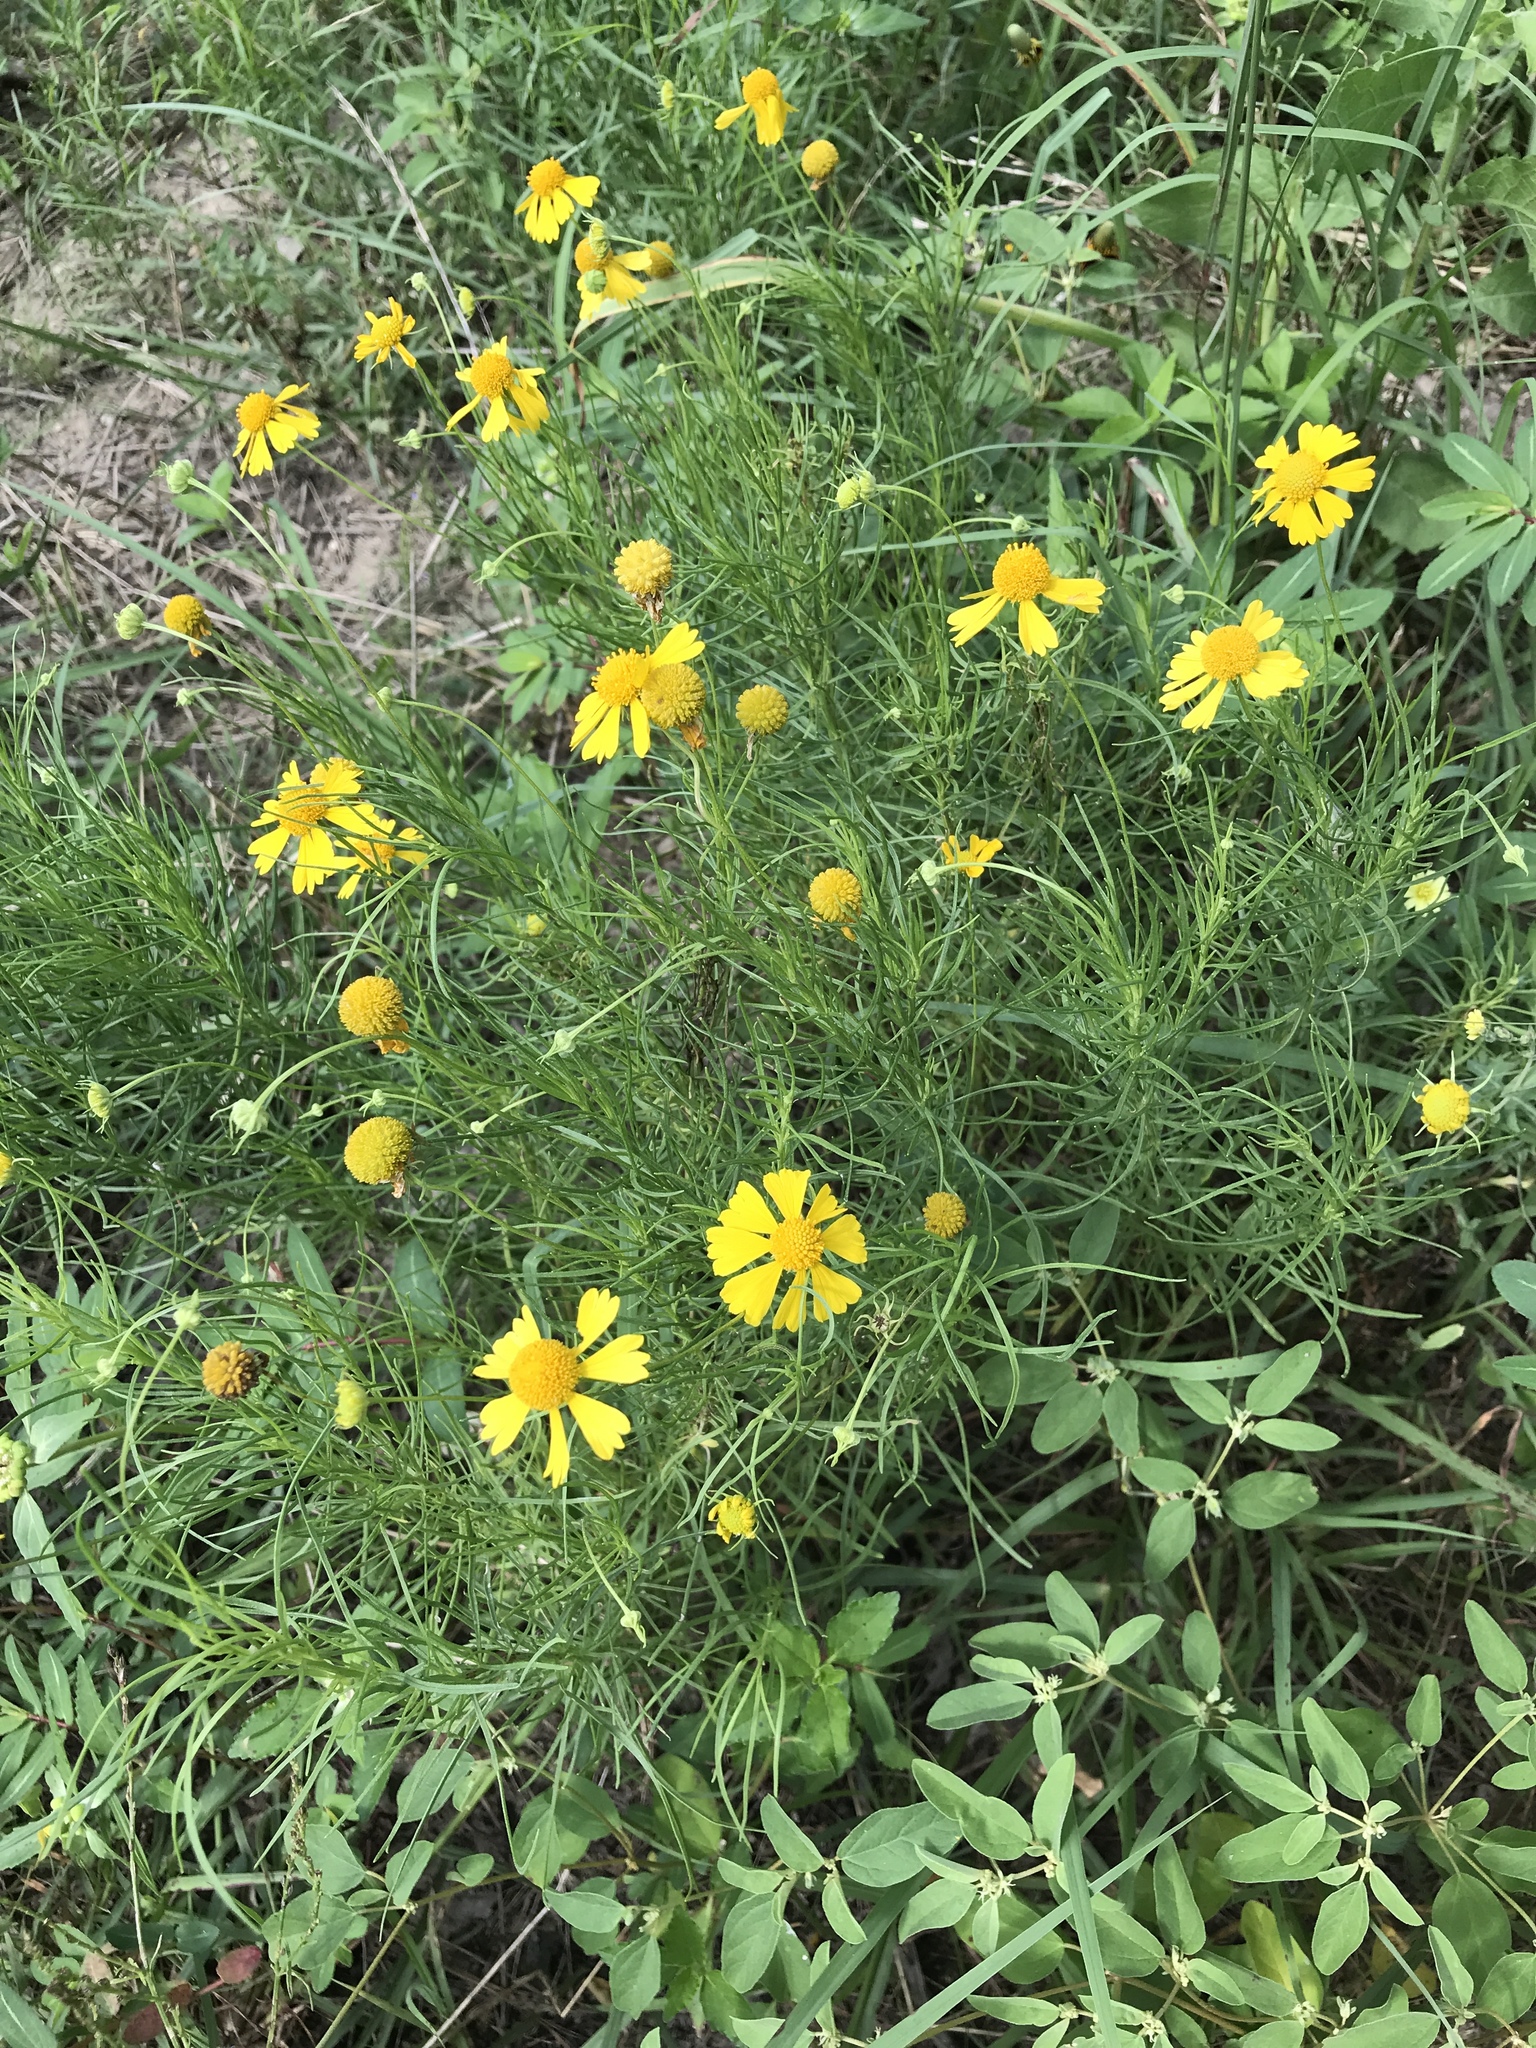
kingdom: Plantae
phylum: Tracheophyta
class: Magnoliopsida
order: Asterales
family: Asteraceae
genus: Helenium
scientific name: Helenium amarum
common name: Bitter sneezeweed
